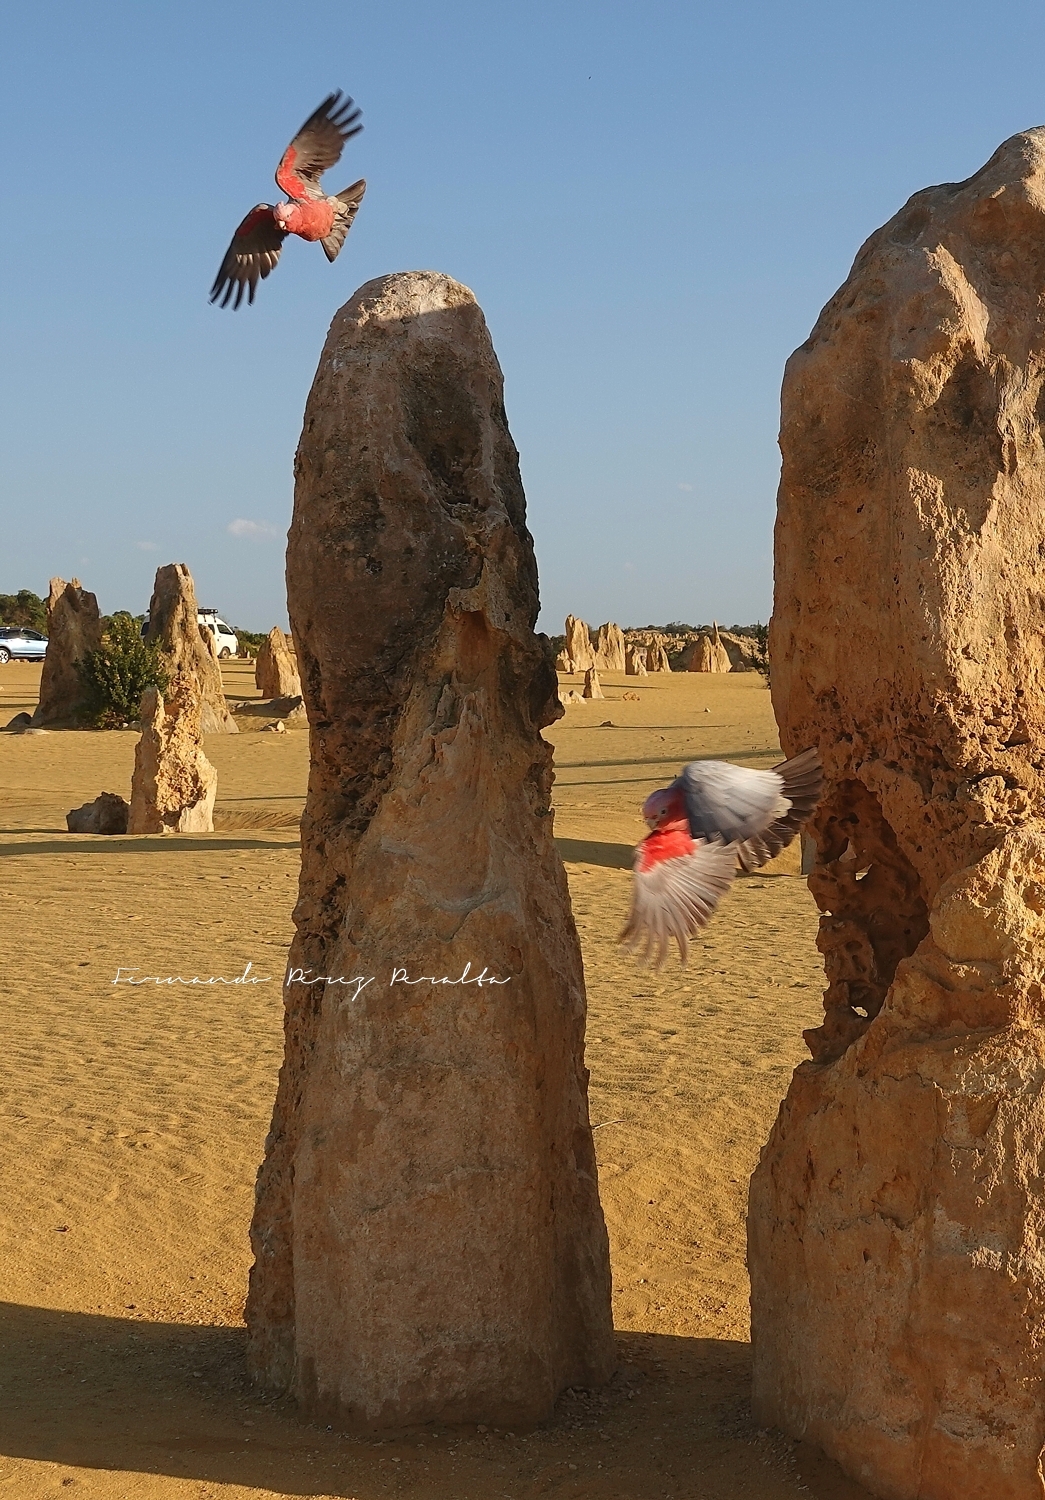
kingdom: Animalia
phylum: Chordata
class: Aves
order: Psittaciformes
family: Psittacidae
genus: Eolophus
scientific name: Eolophus roseicapilla
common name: Galah
